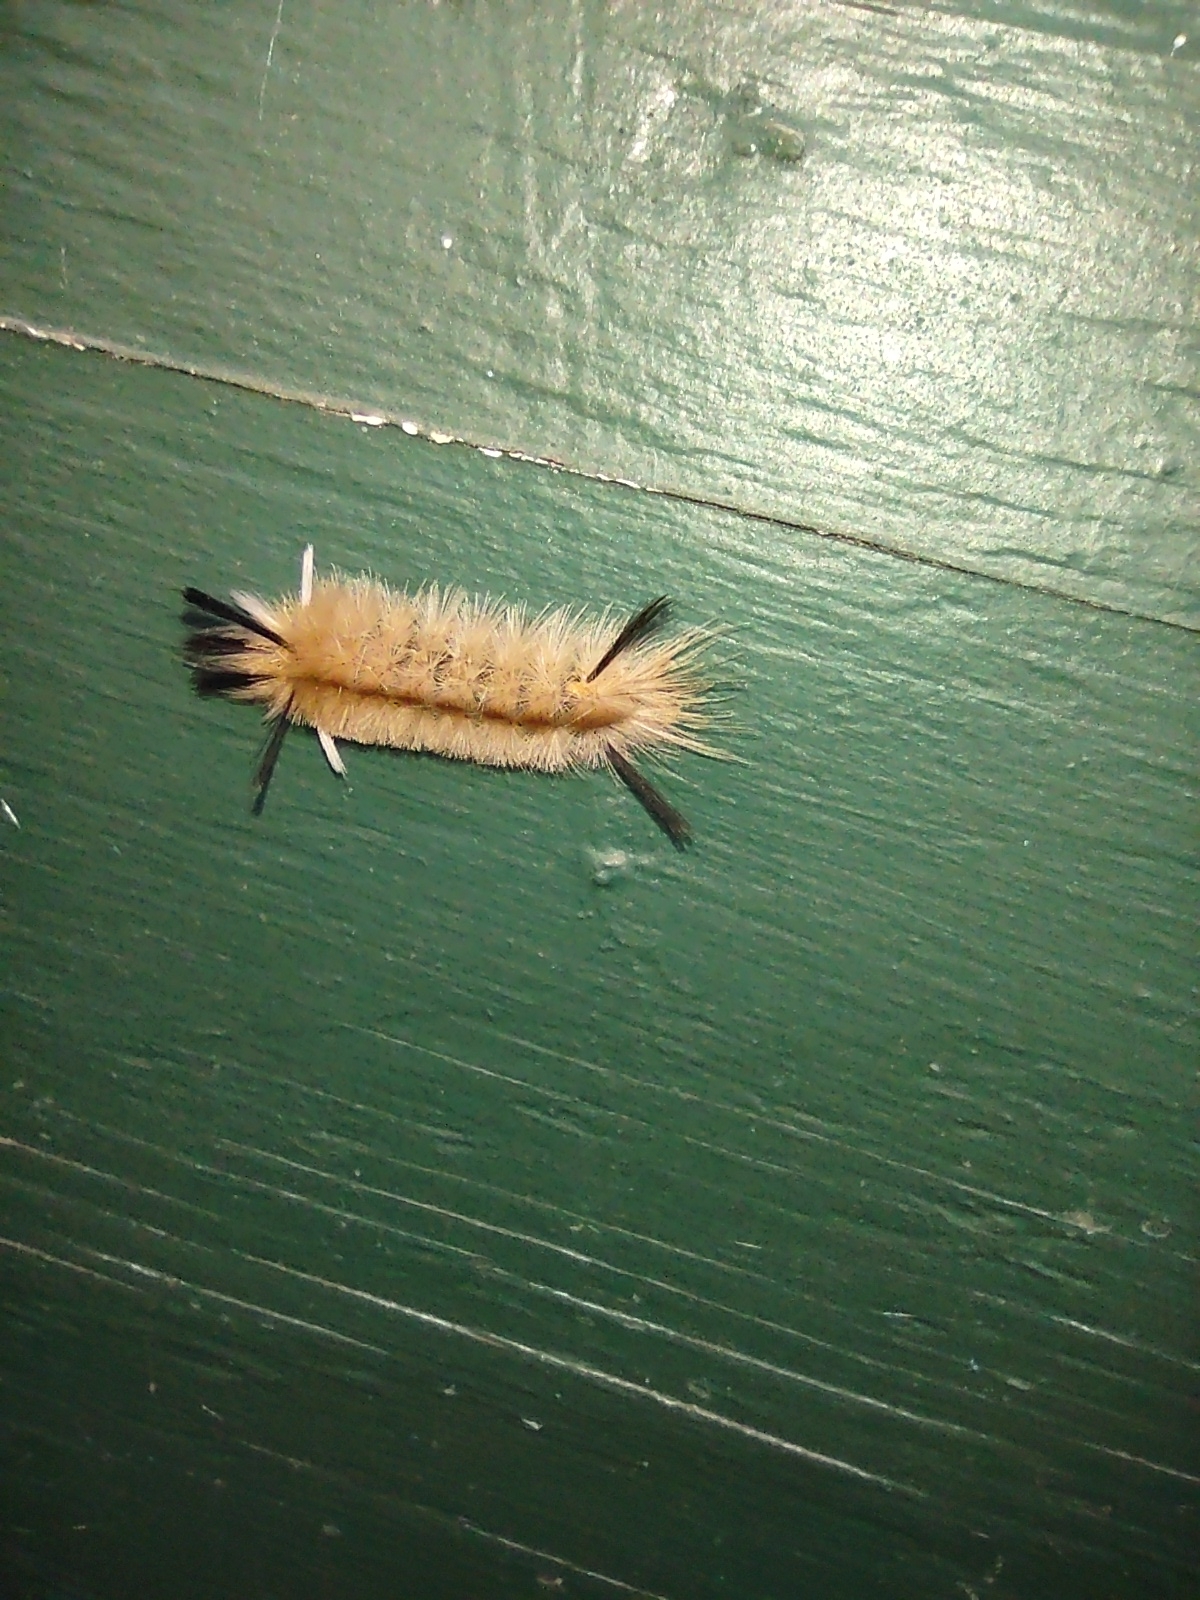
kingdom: Animalia
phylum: Arthropoda
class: Insecta
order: Lepidoptera
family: Erebidae
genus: Halysidota
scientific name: Halysidota tessellaris
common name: Banded tussock moth
